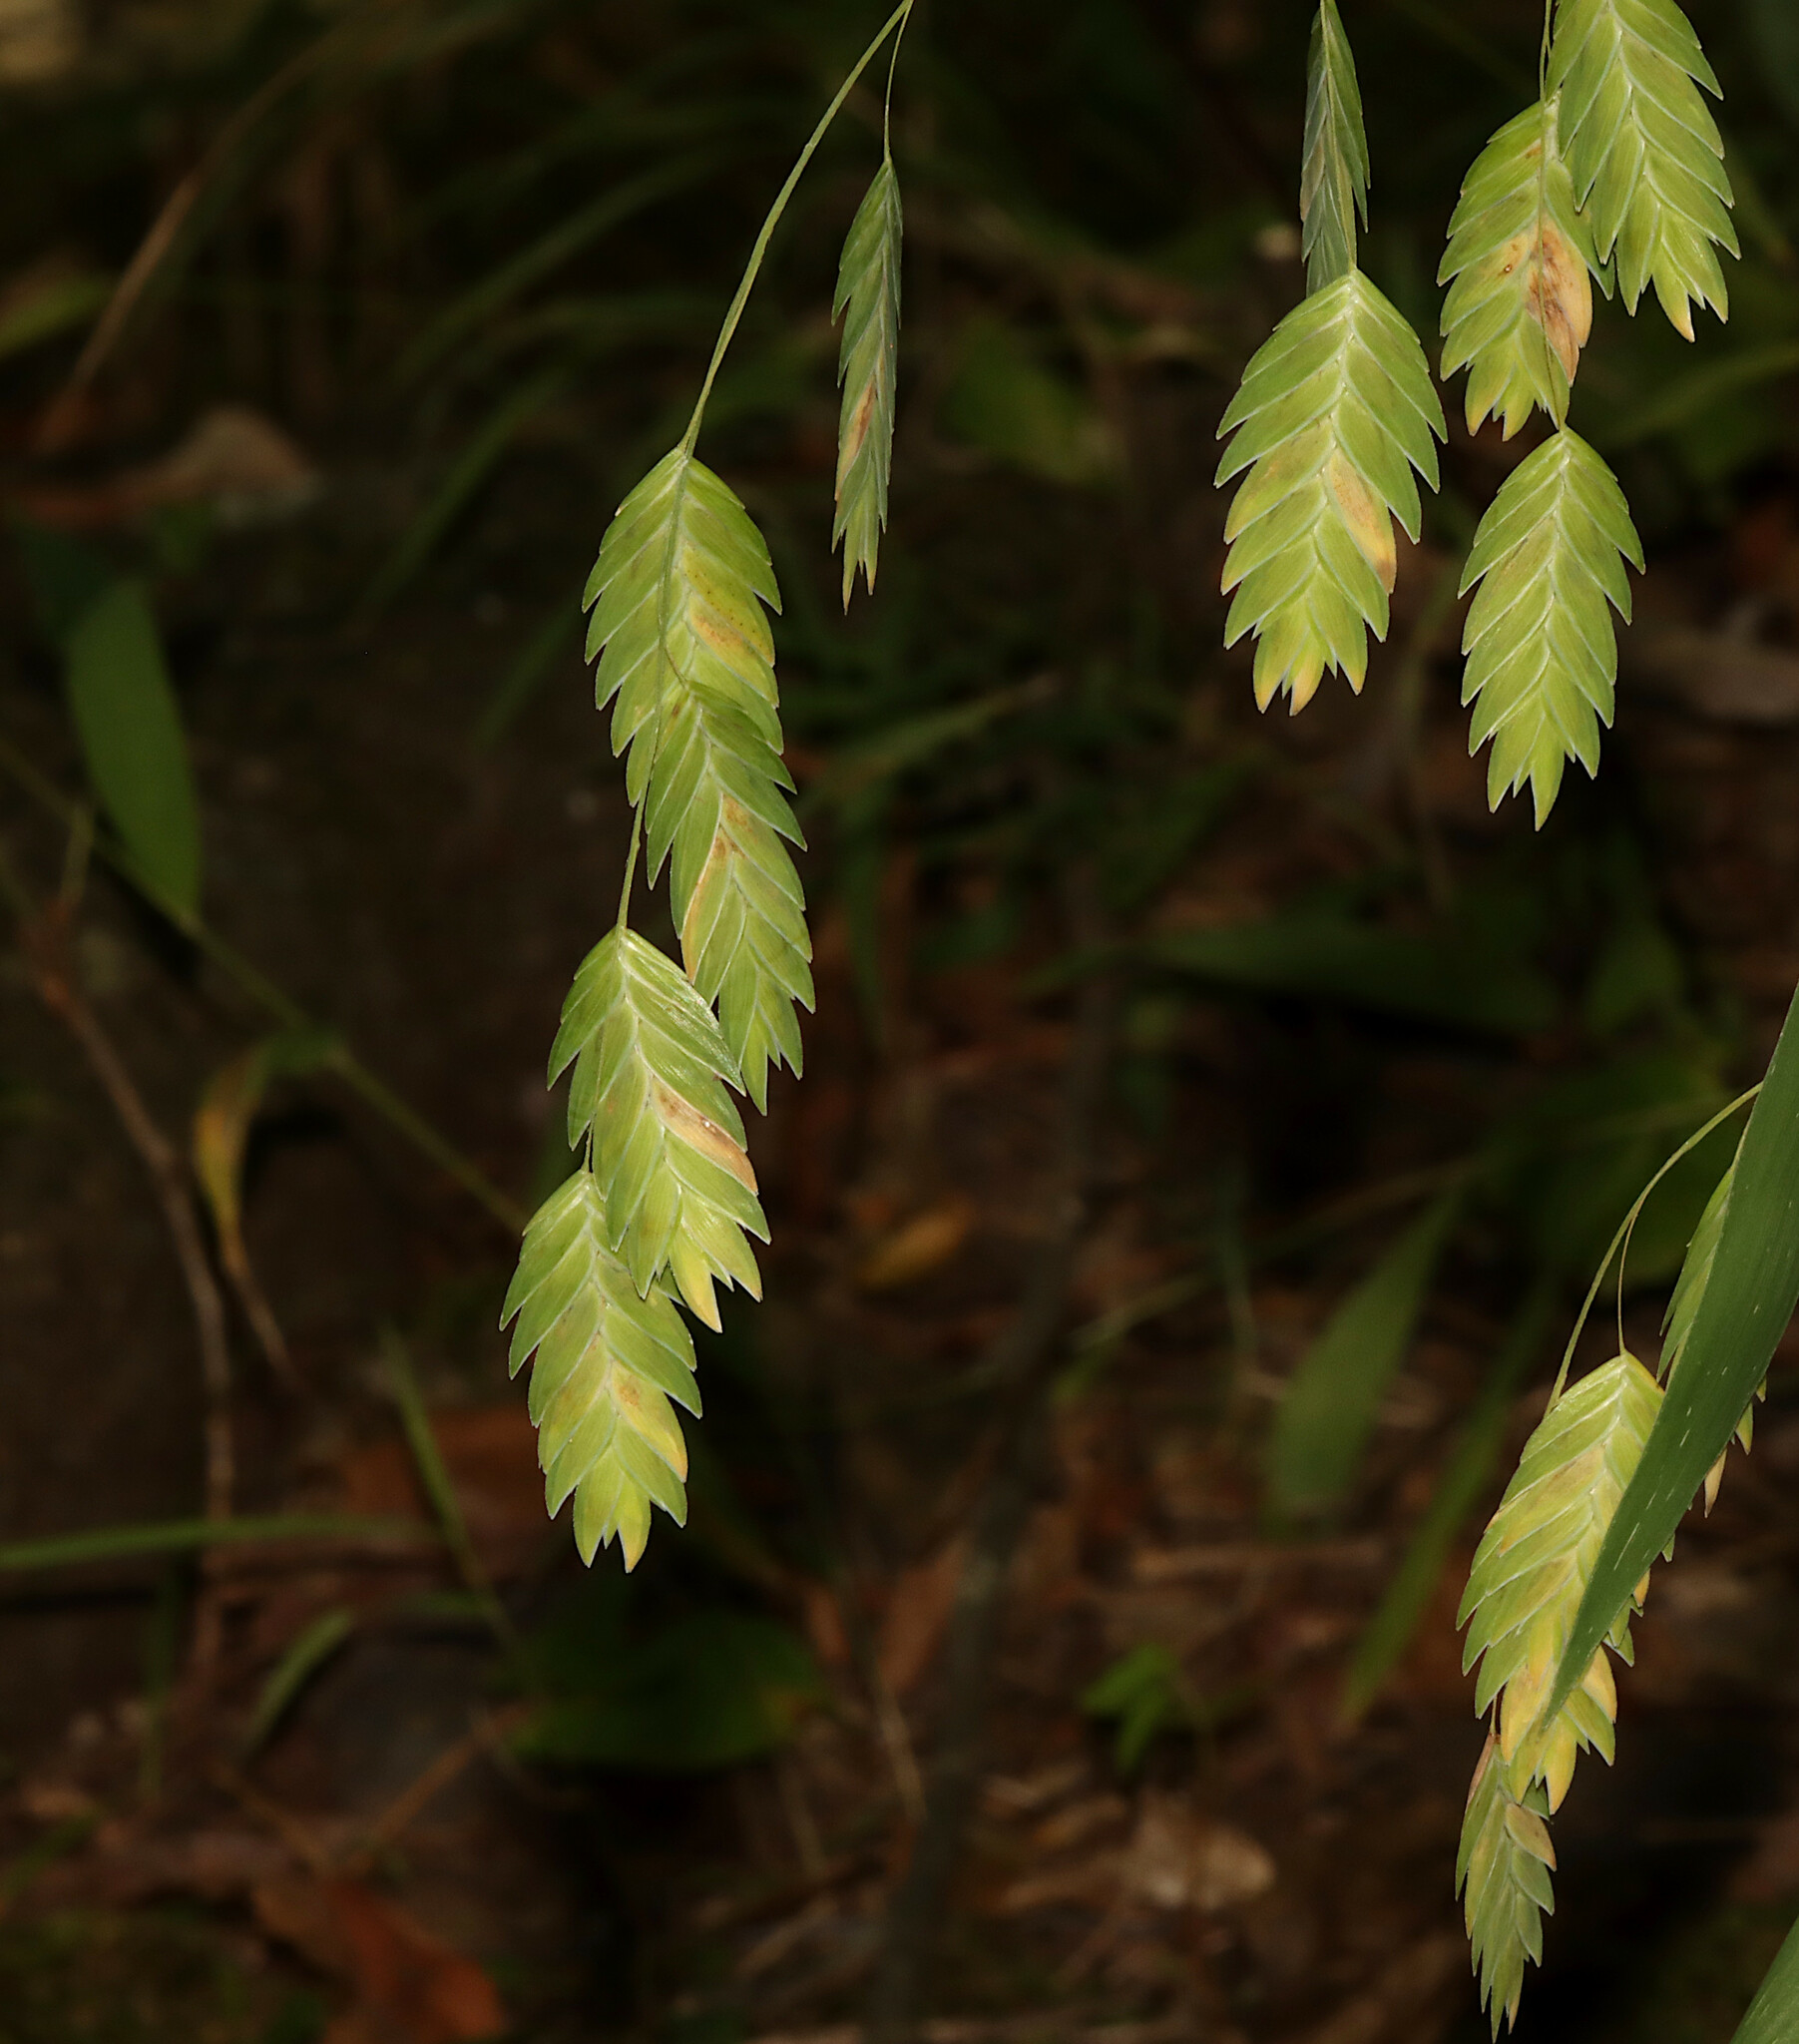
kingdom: Plantae
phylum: Tracheophyta
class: Liliopsida
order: Poales
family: Poaceae
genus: Chasmanthium
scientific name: Chasmanthium latifolium
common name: Broad-leaved chasmanthium
